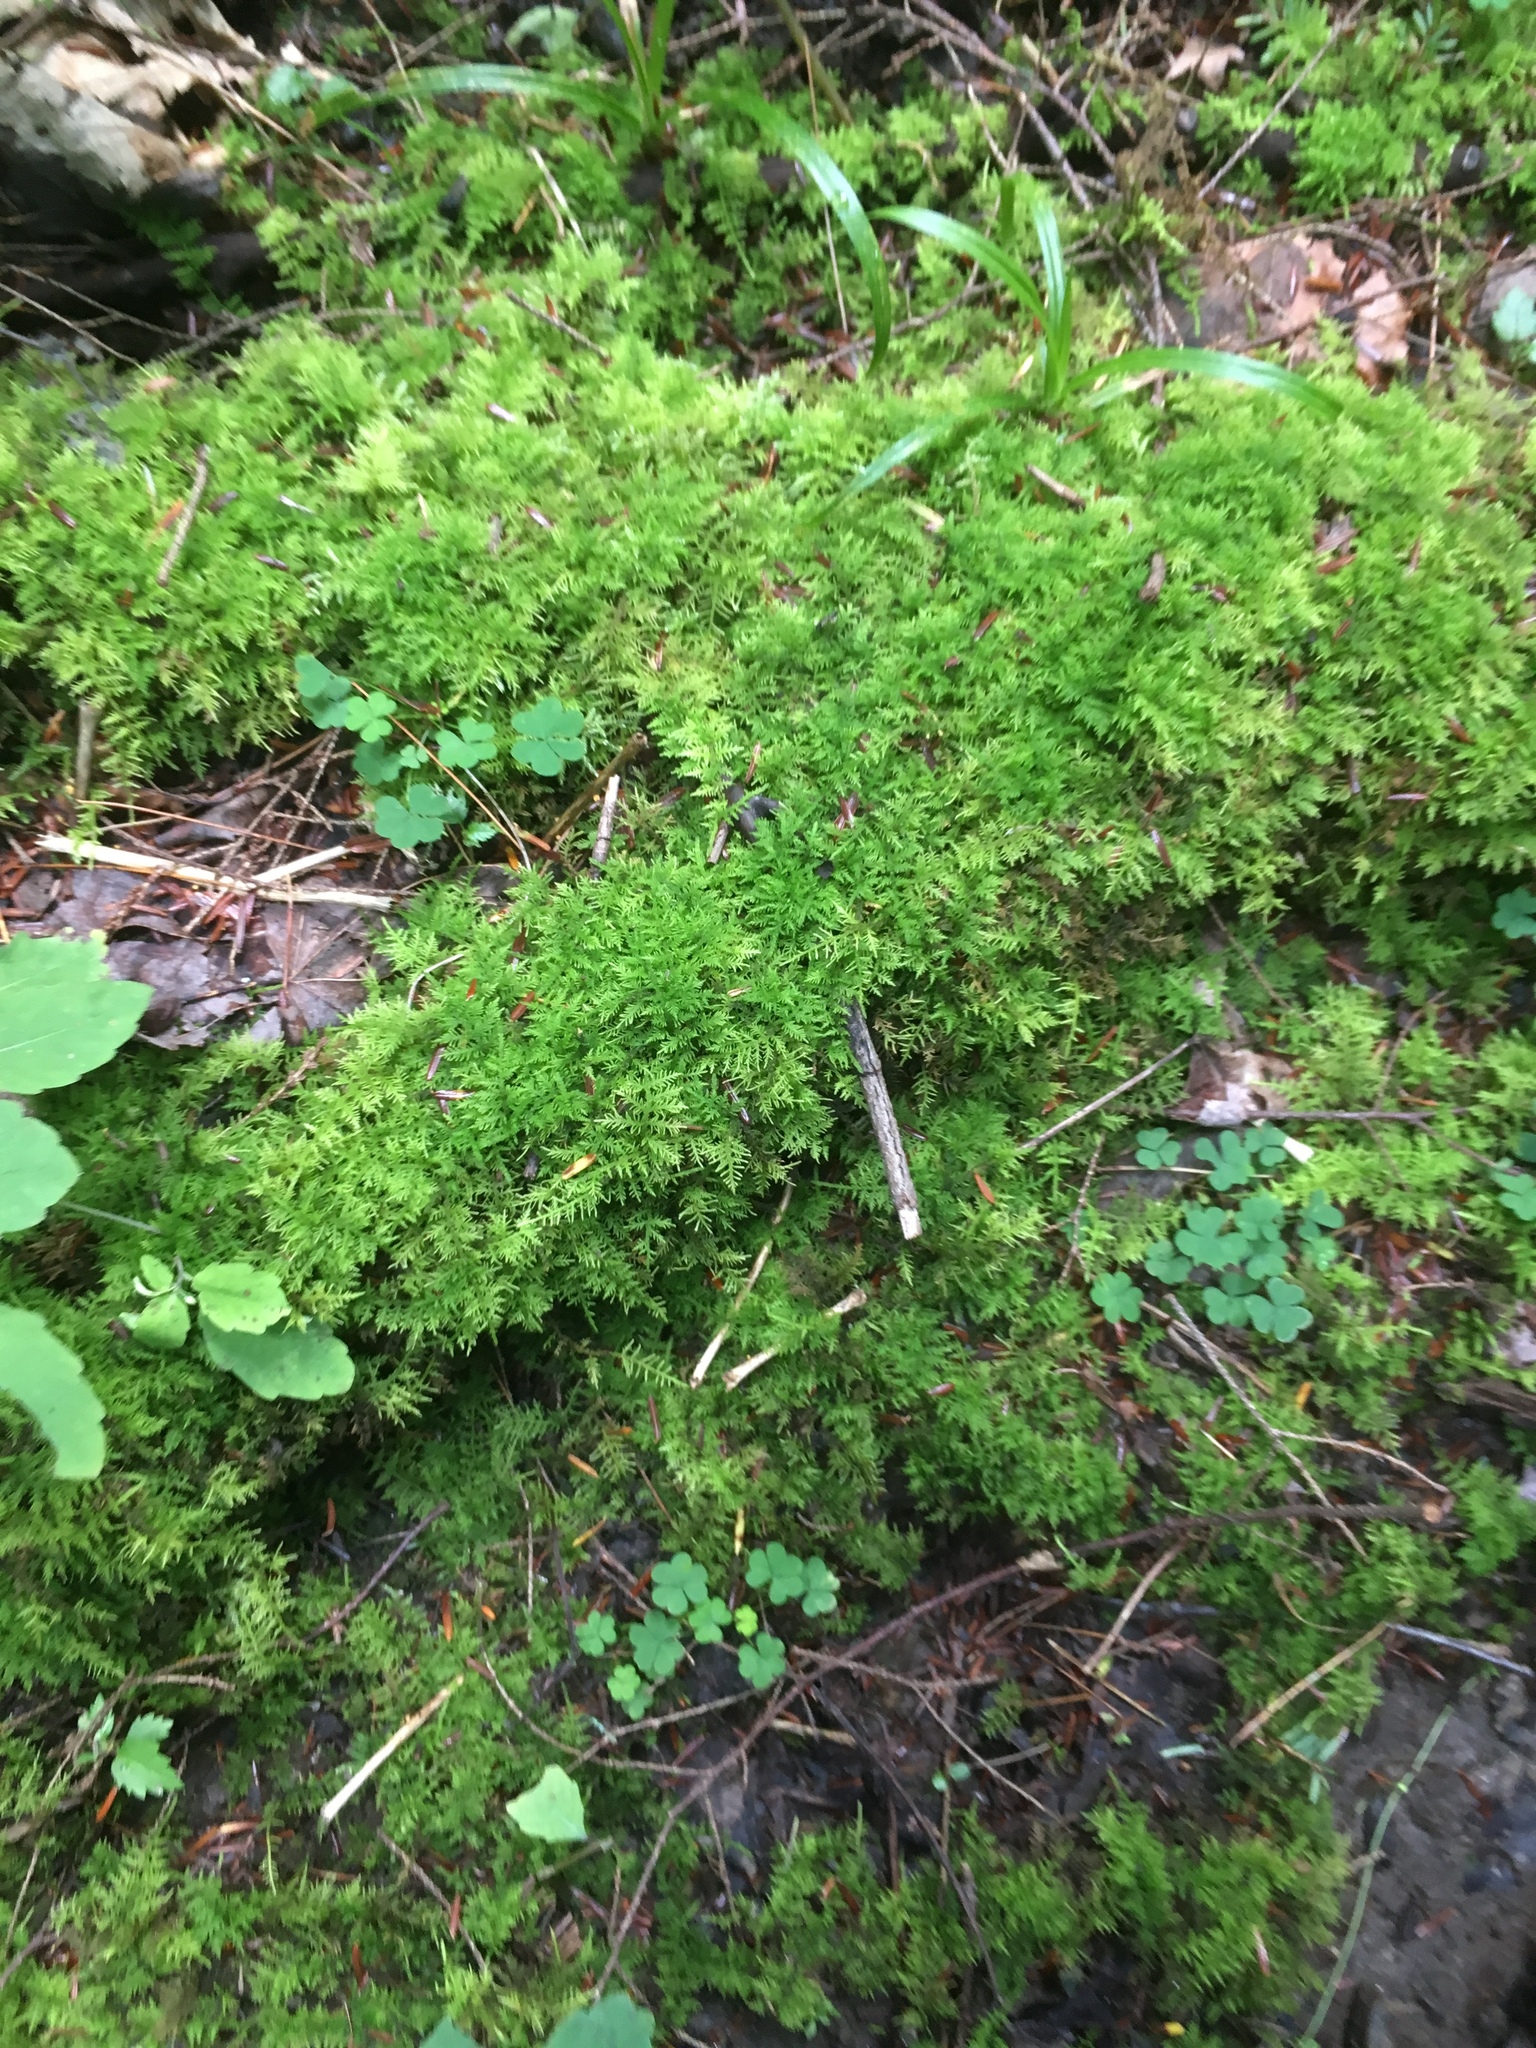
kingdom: Plantae
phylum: Bryophyta
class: Bryopsida
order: Hypnales
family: Thuidiaceae
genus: Thuidium
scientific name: Thuidium
